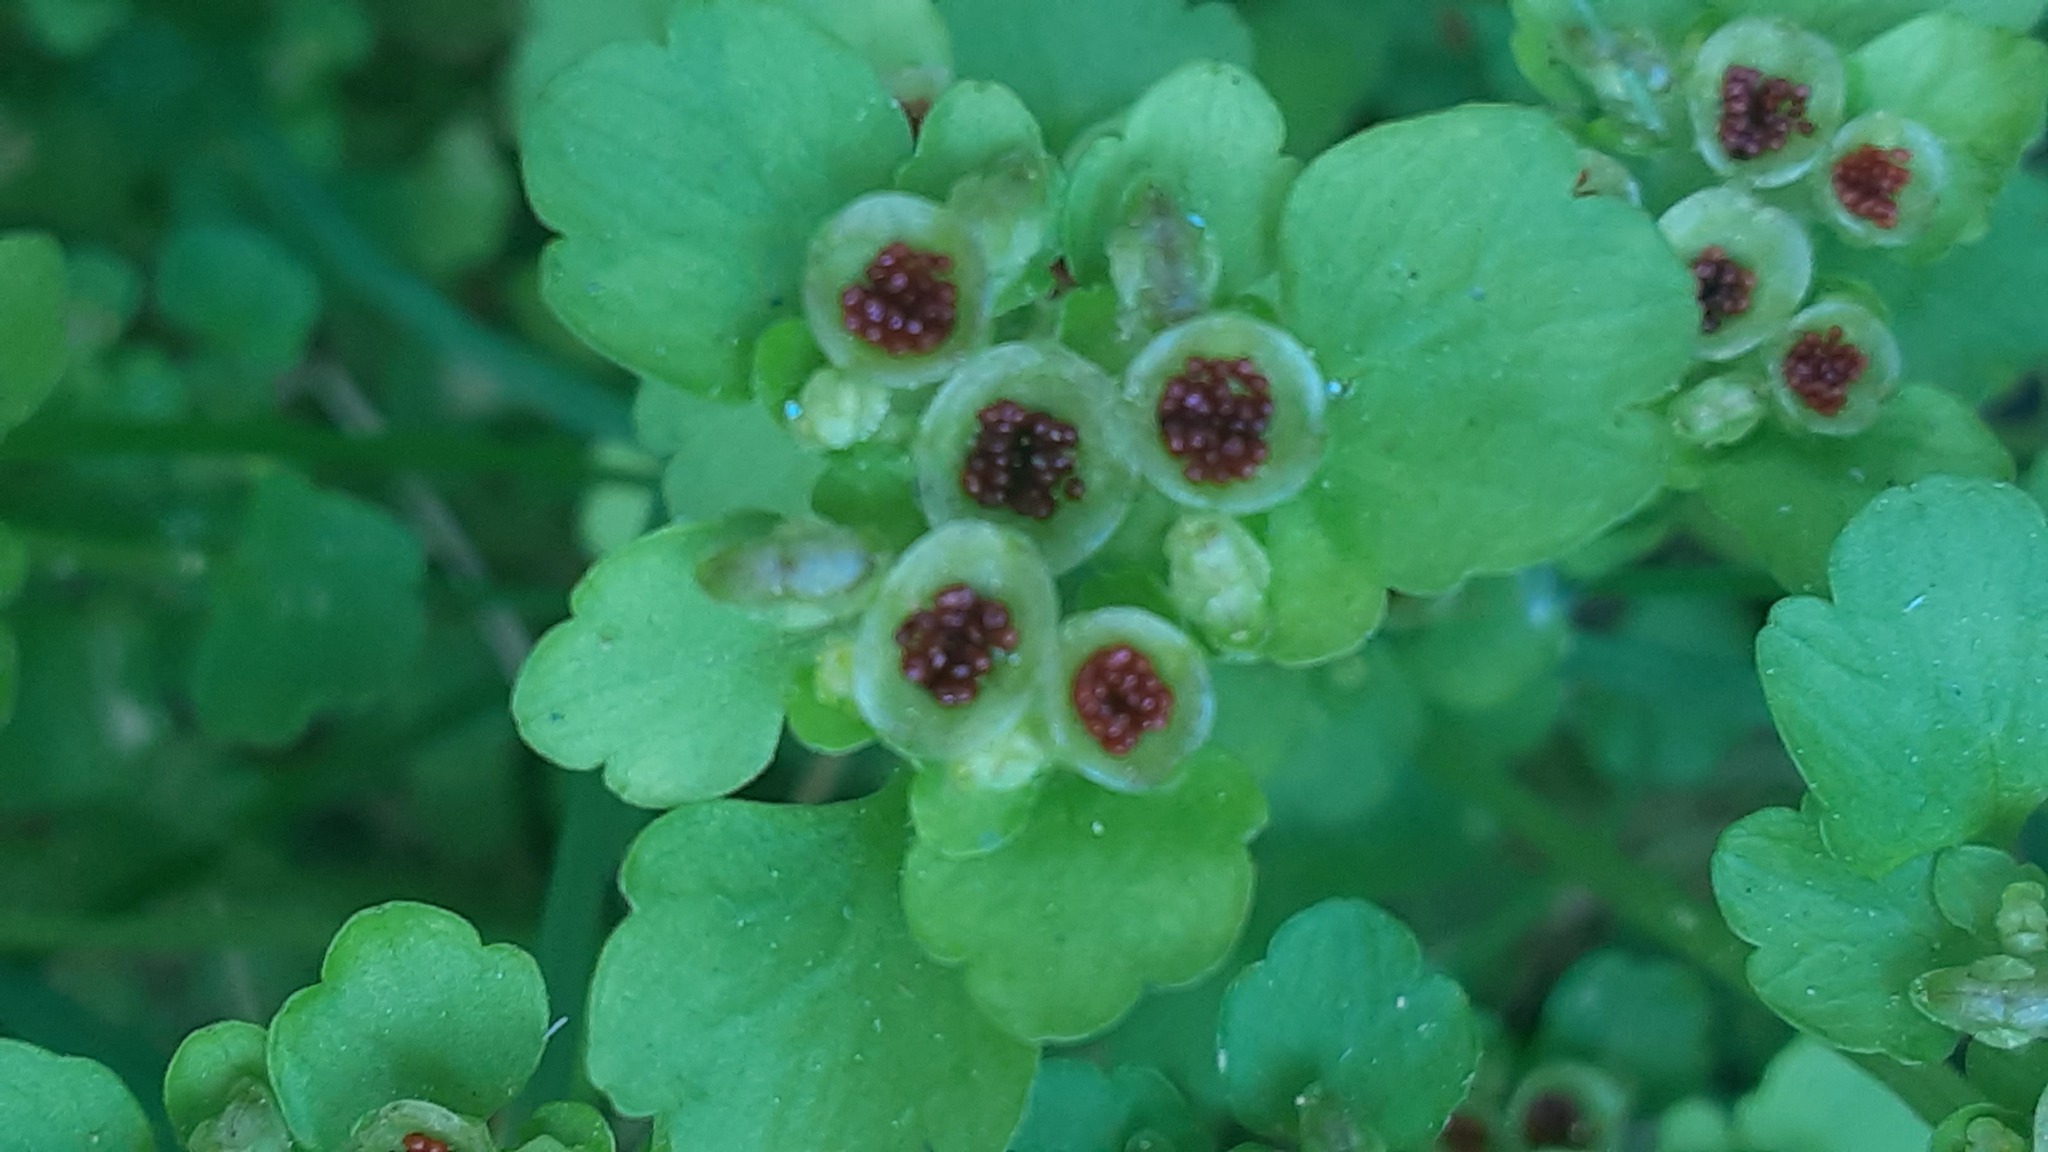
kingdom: Plantae
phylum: Tracheophyta
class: Magnoliopsida
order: Saxifragales
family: Saxifragaceae
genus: Chrysosplenium
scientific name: Chrysosplenium tetrandrum
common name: Green saxifrage
